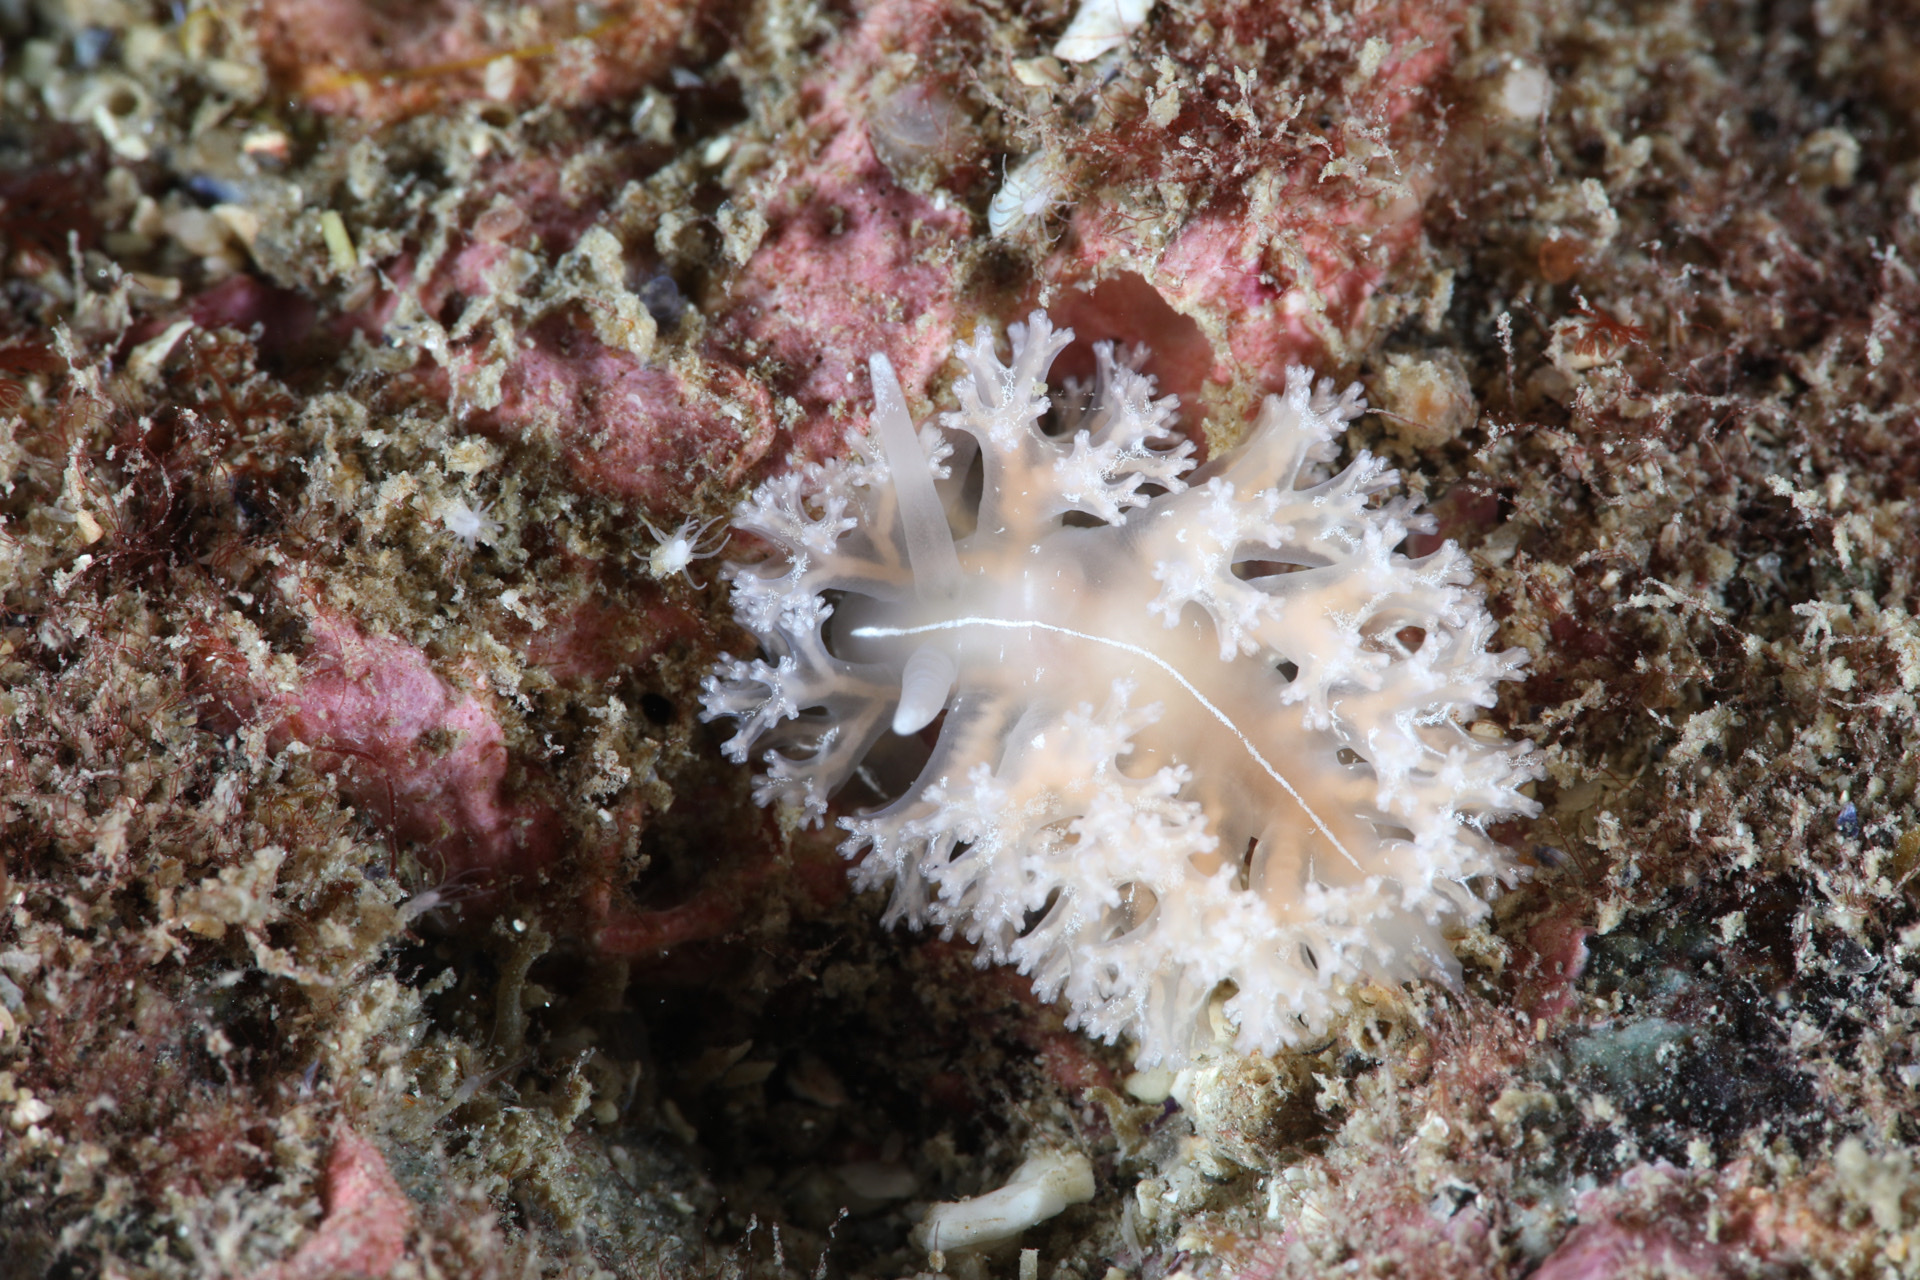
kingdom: Animalia
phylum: Mollusca
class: Gastropoda
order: Nudibranchia
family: Heroidae
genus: Hero
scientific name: Hero formosa
